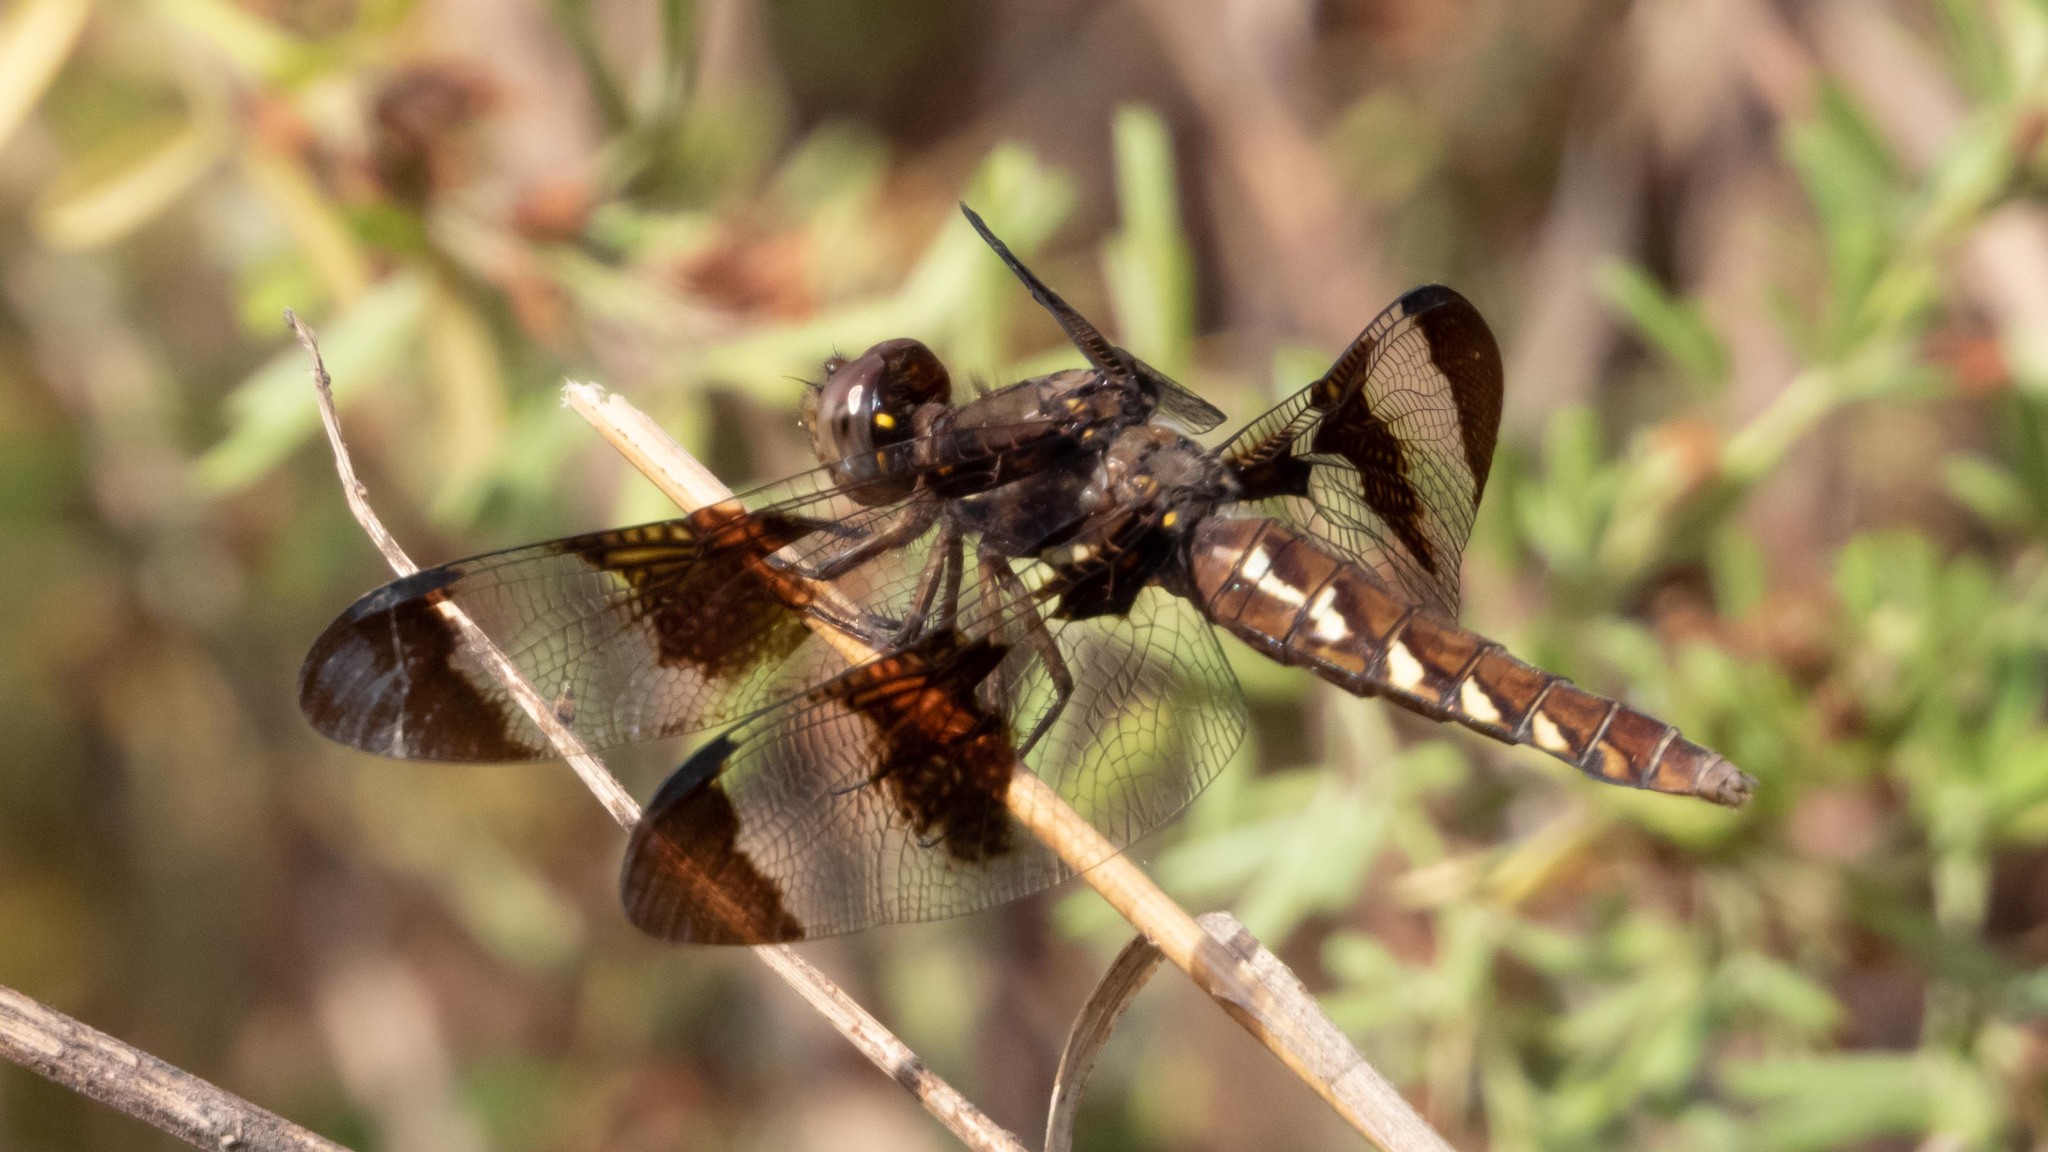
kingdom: Animalia
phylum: Arthropoda
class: Insecta
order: Odonata
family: Libellulidae
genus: Plathemis
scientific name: Plathemis lydia
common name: Common whitetail
